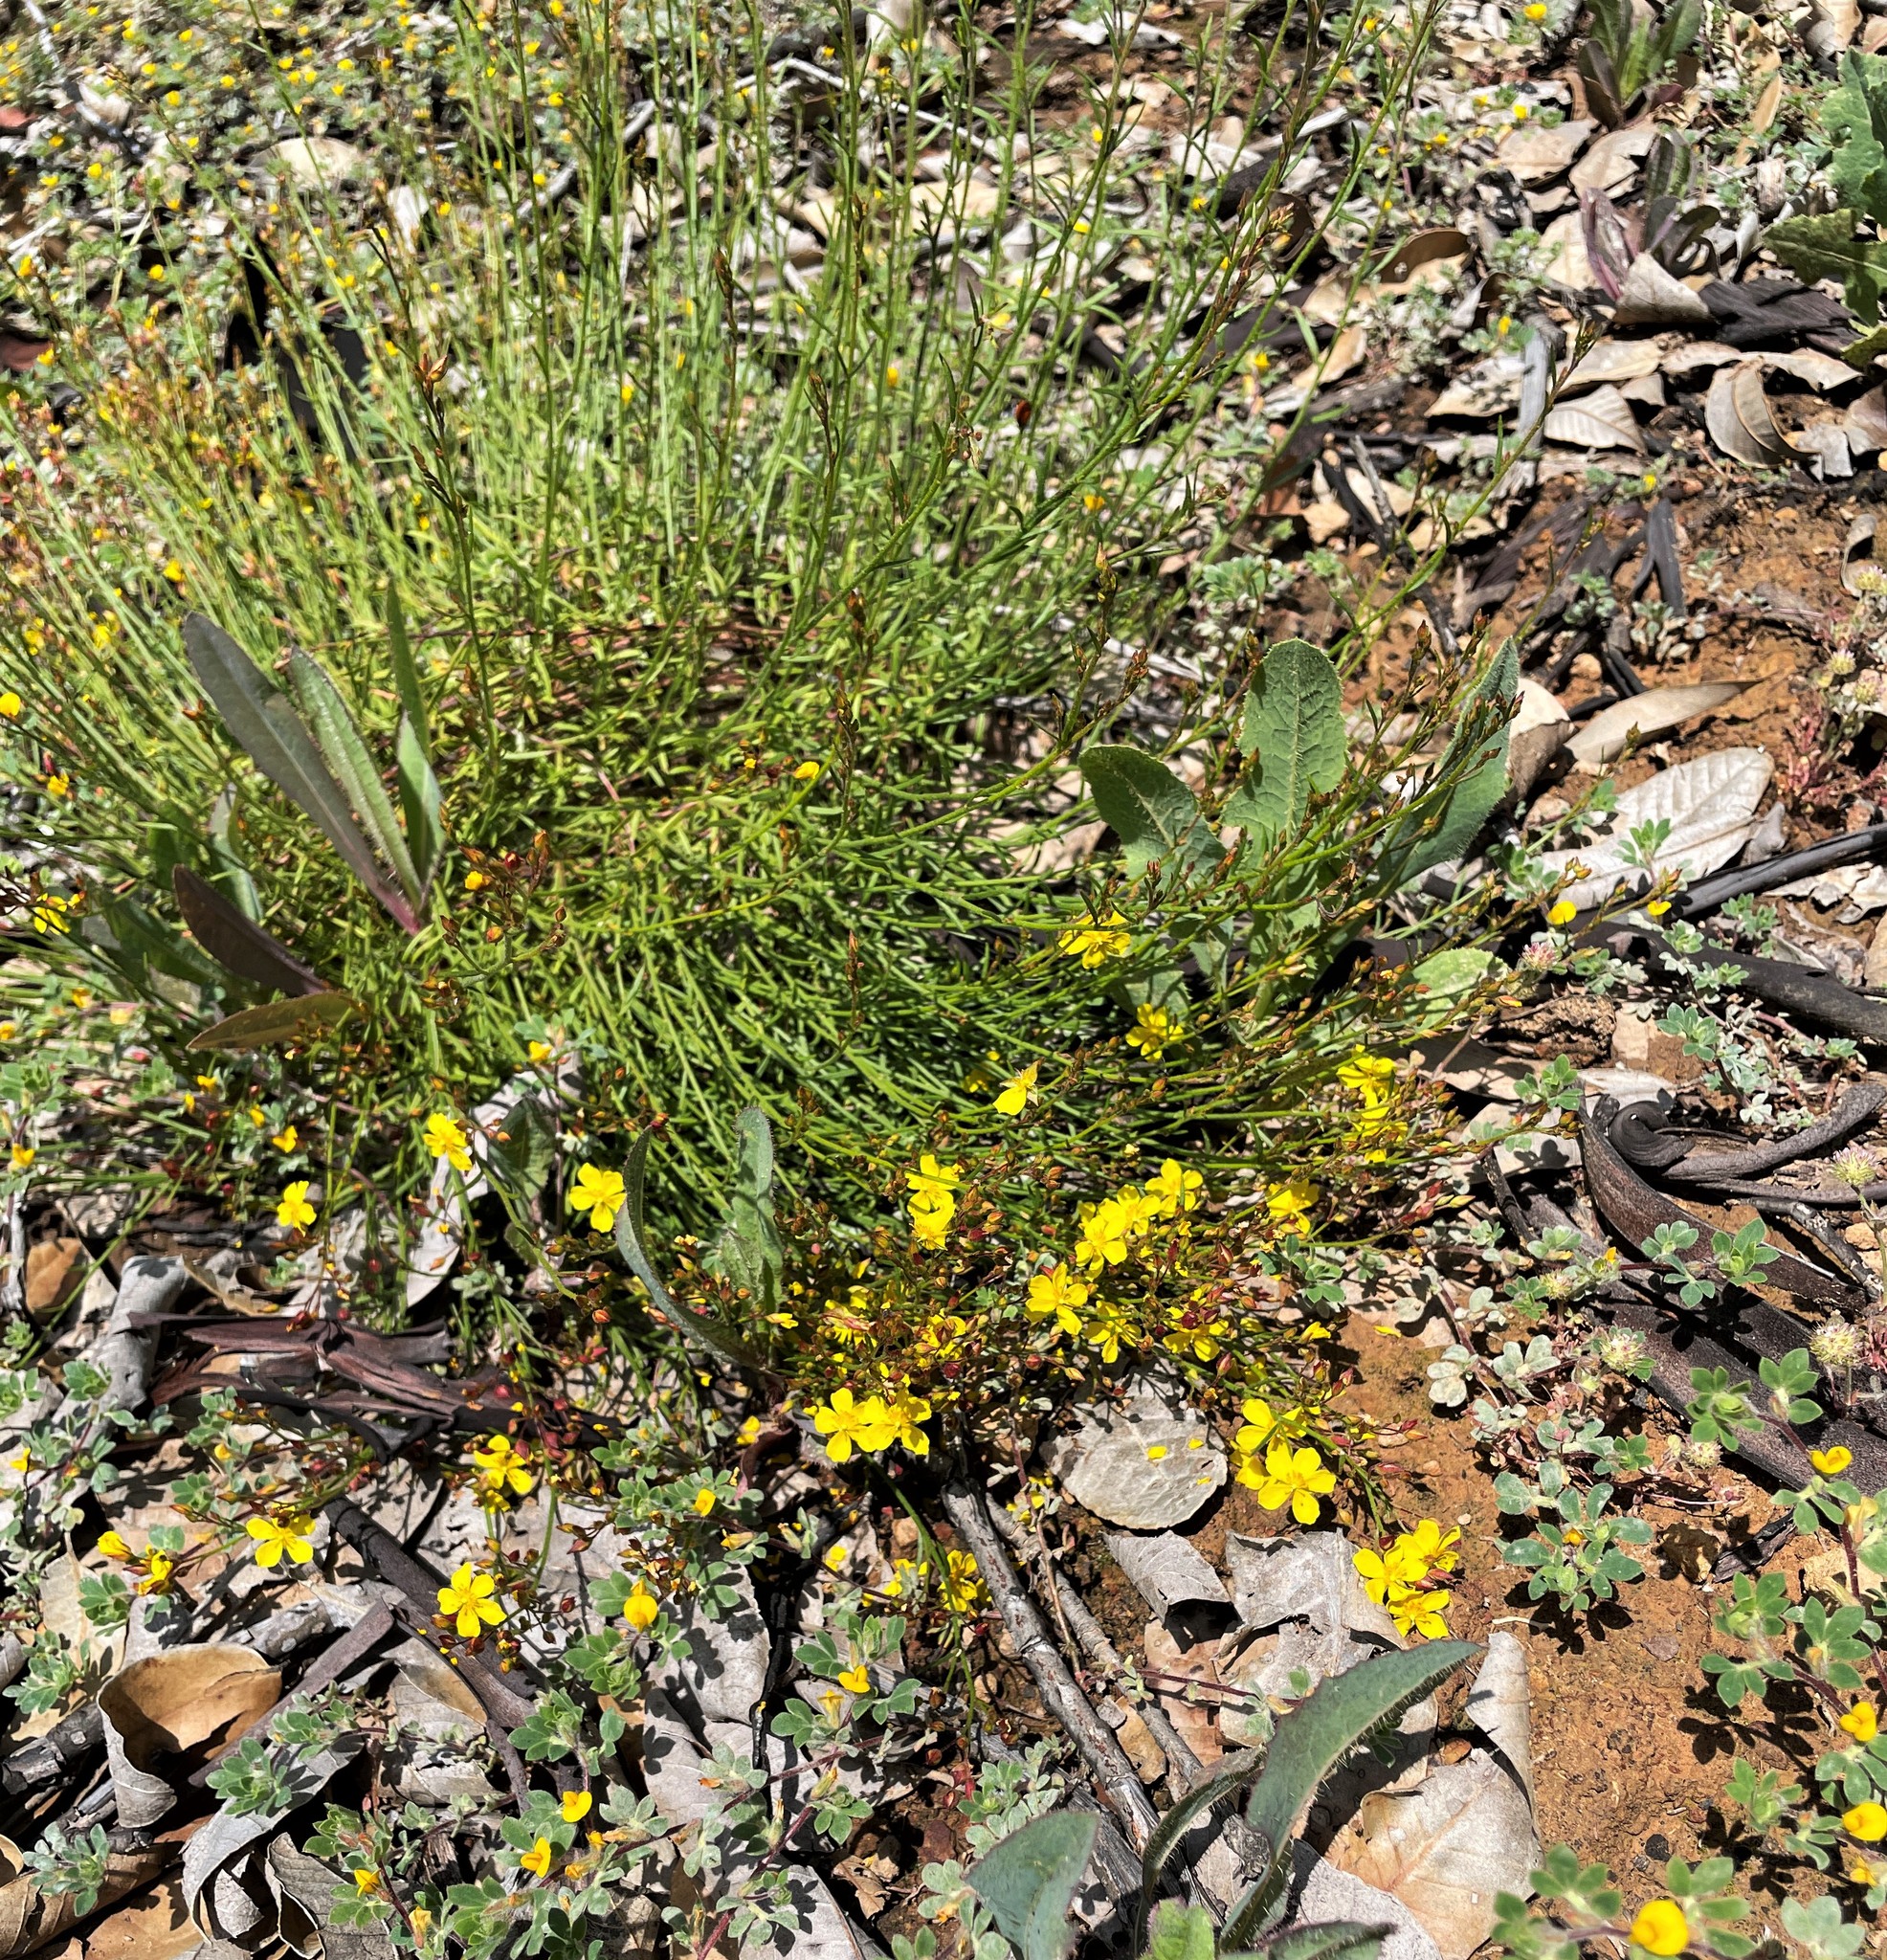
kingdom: Plantae
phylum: Tracheophyta
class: Magnoliopsida
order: Malvales
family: Cistaceae
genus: Crocanthemum
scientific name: Crocanthemum scoparium
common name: Broom-rose
